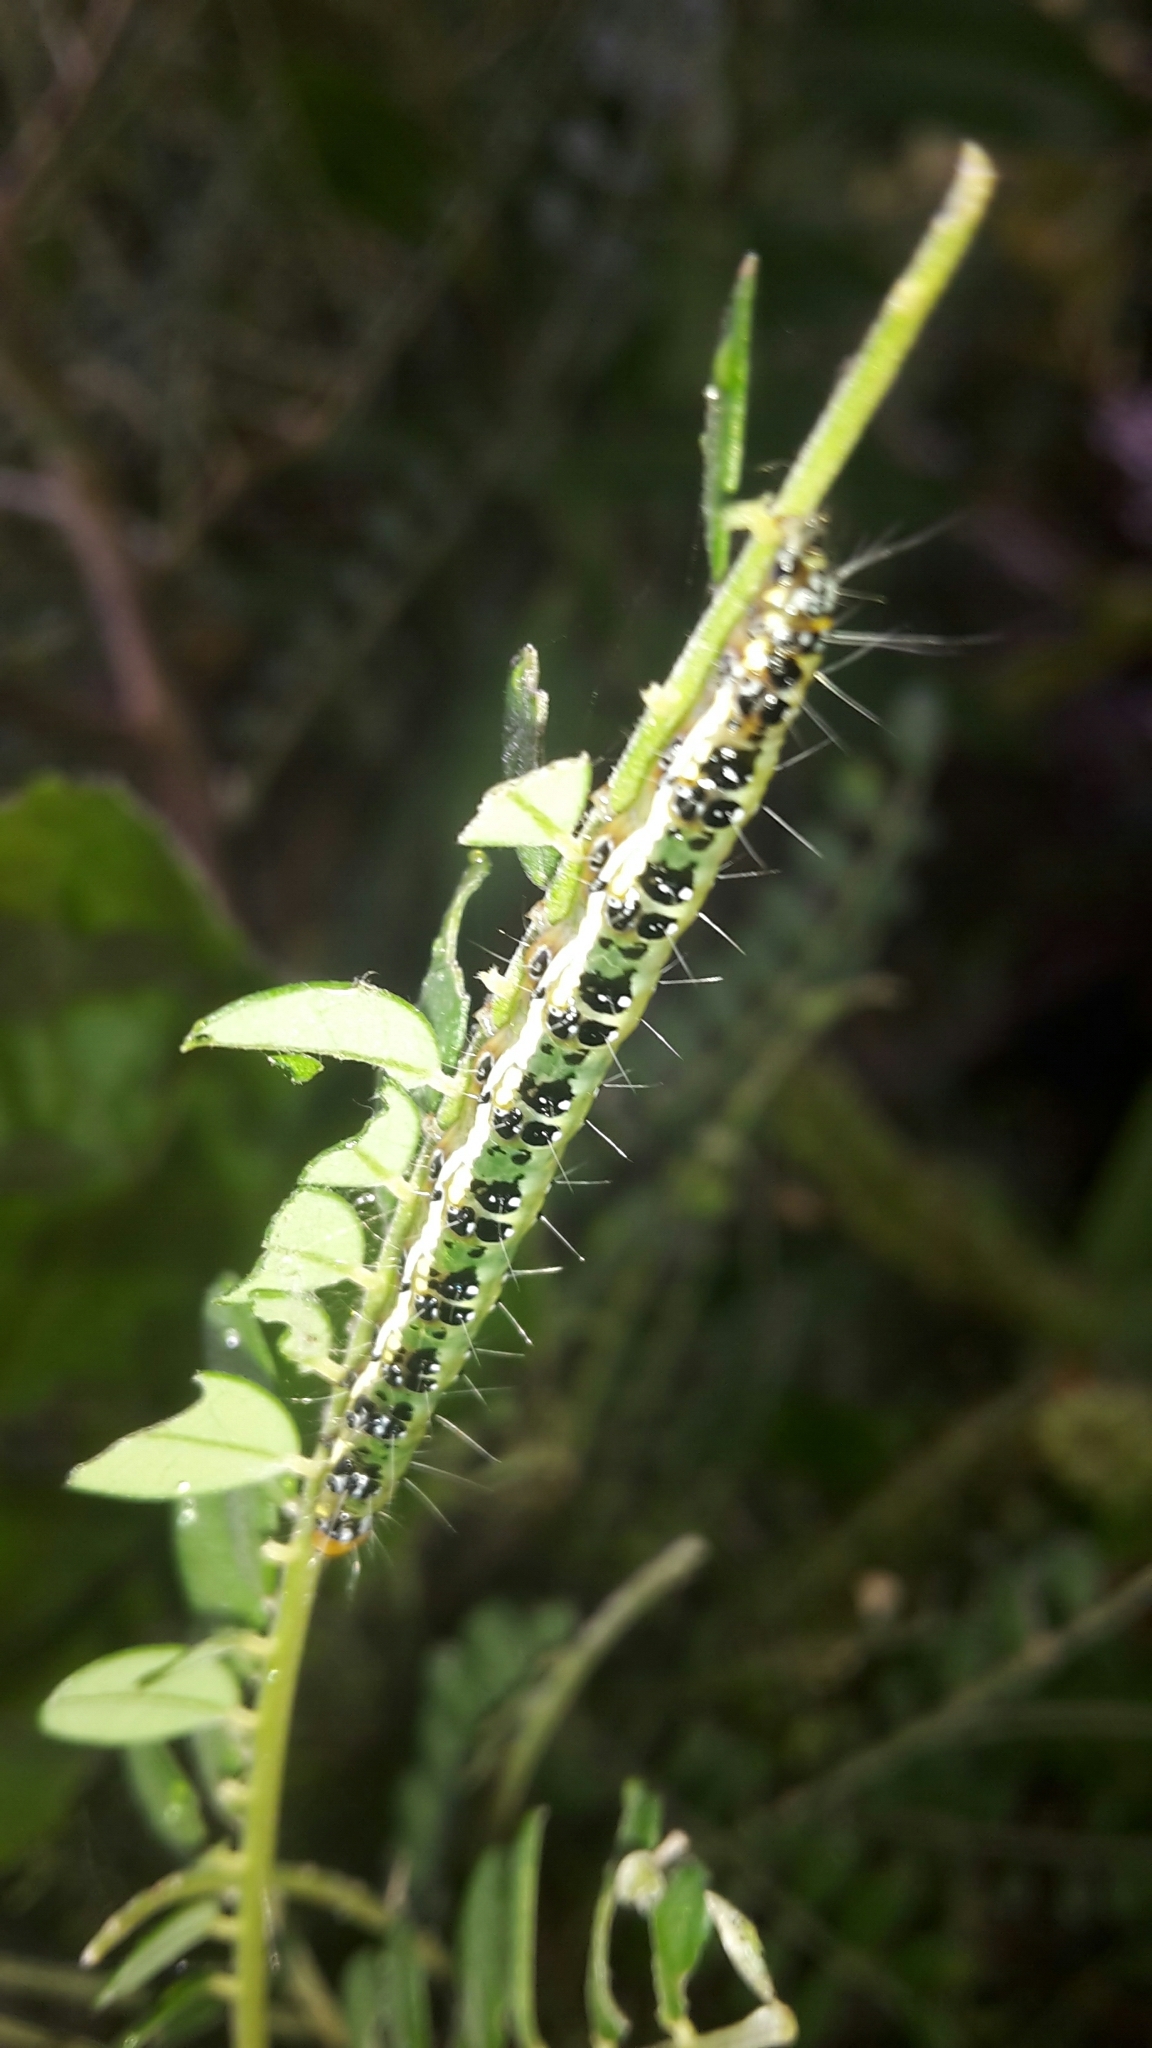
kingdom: Animalia
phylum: Arthropoda
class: Insecta
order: Lepidoptera
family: Crambidae
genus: Uresiphita
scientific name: Uresiphita
